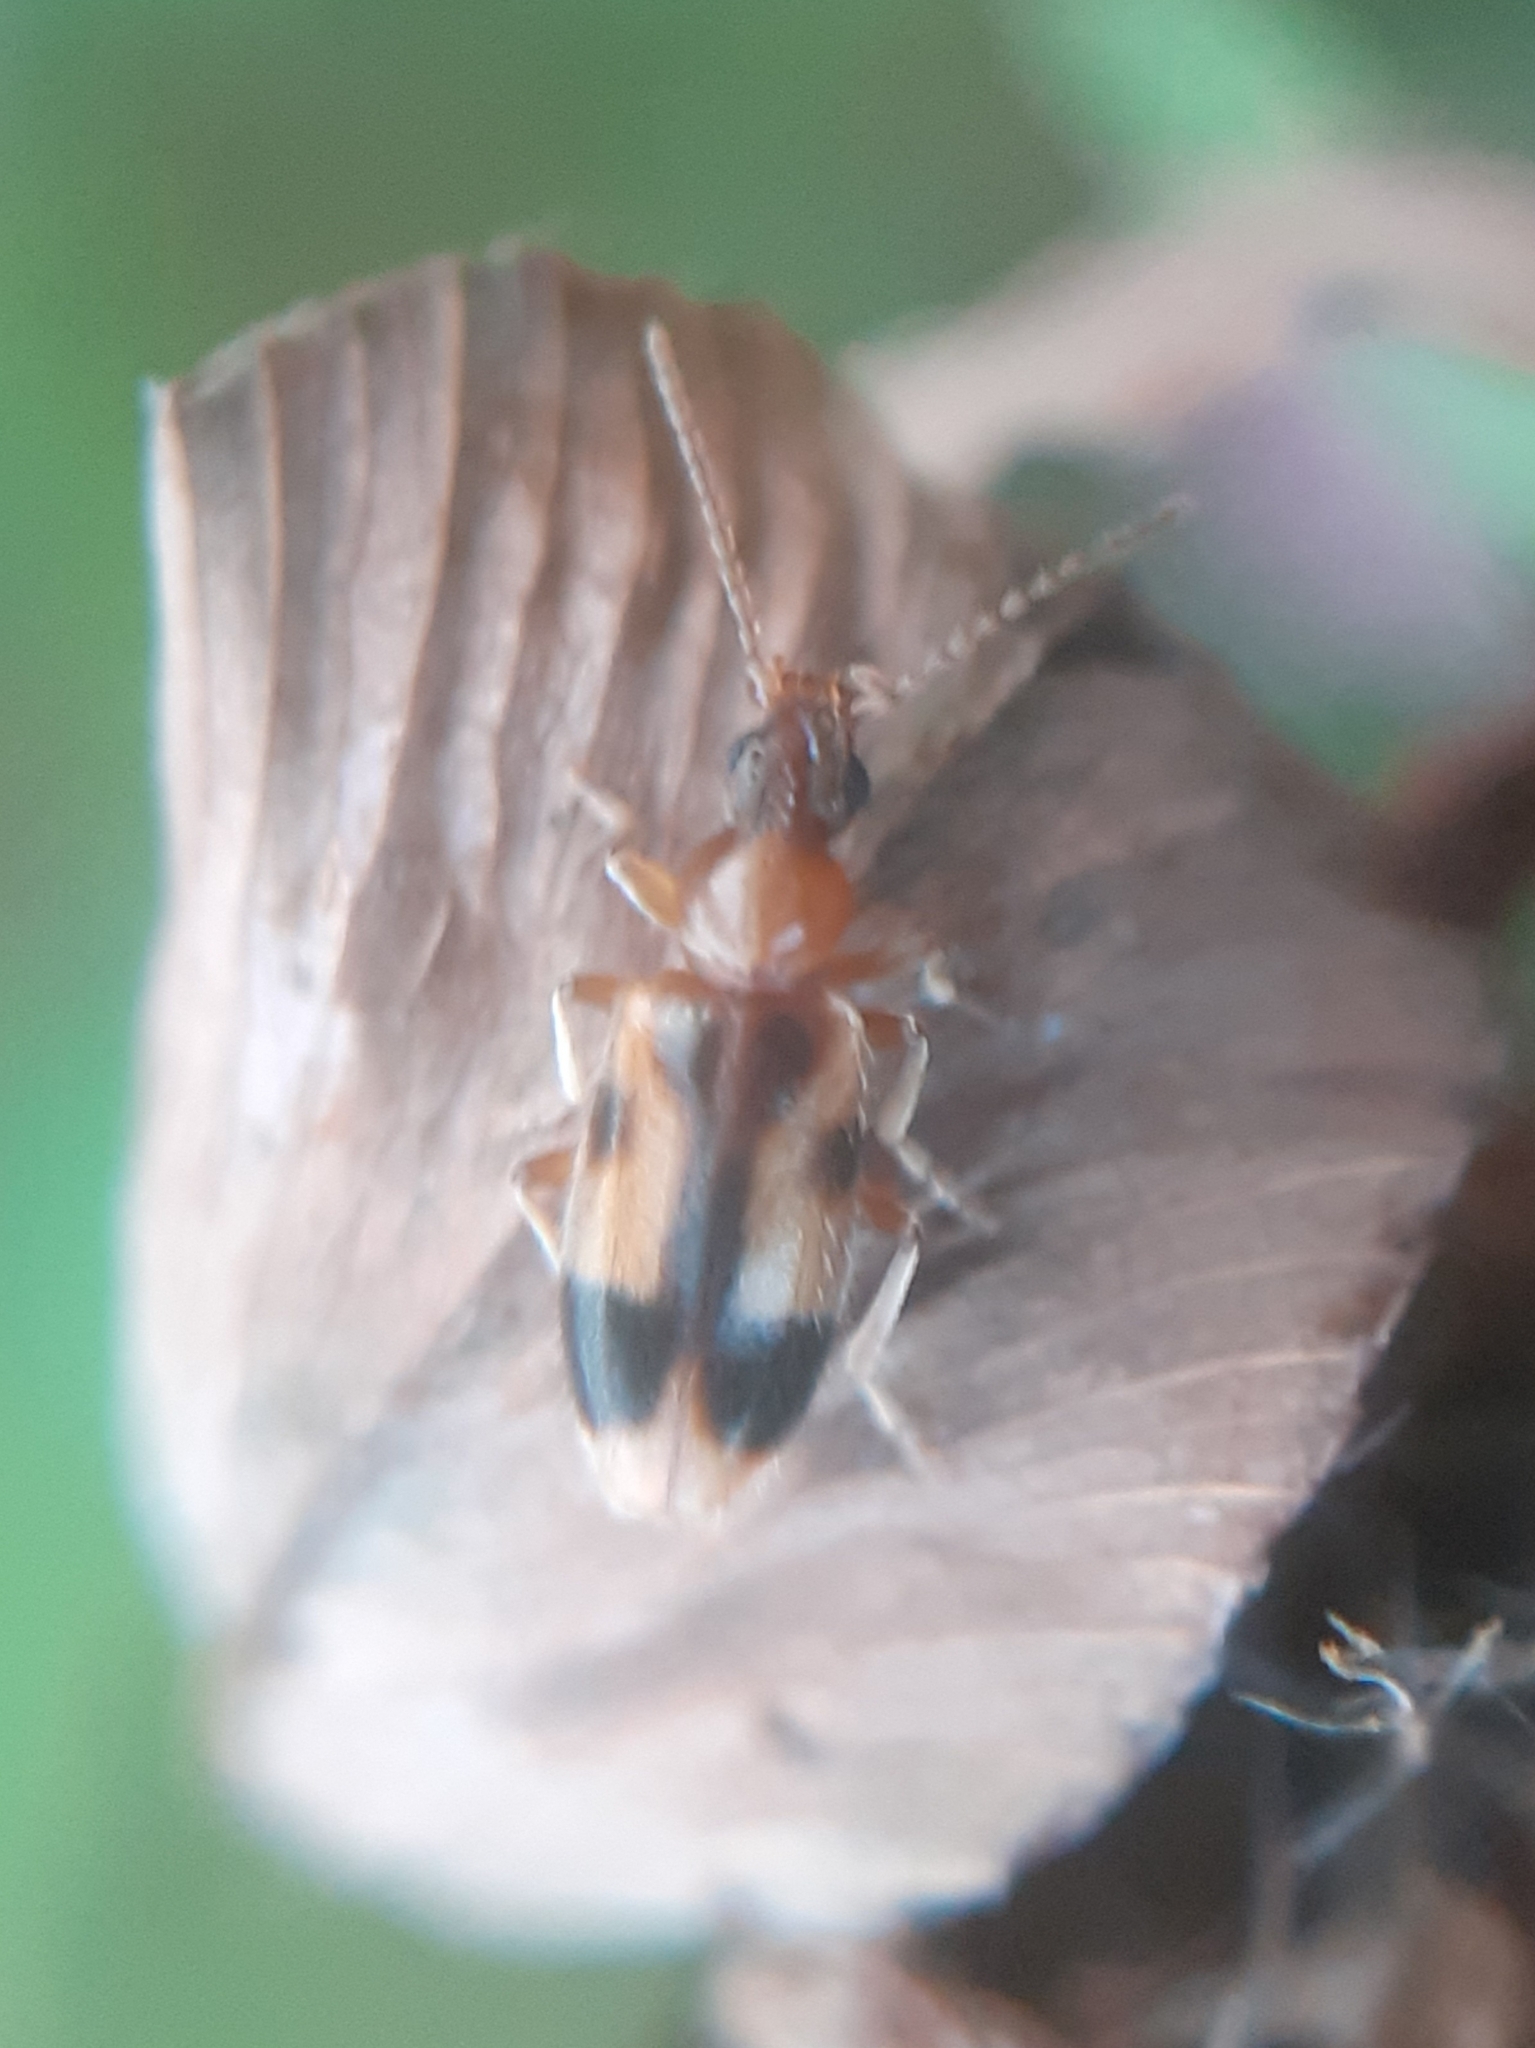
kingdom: Animalia
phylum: Arthropoda
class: Insecta
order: Coleoptera
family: Anthicidae
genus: Notoxus
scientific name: Notoxus monoceros
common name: Monoceros beetle
